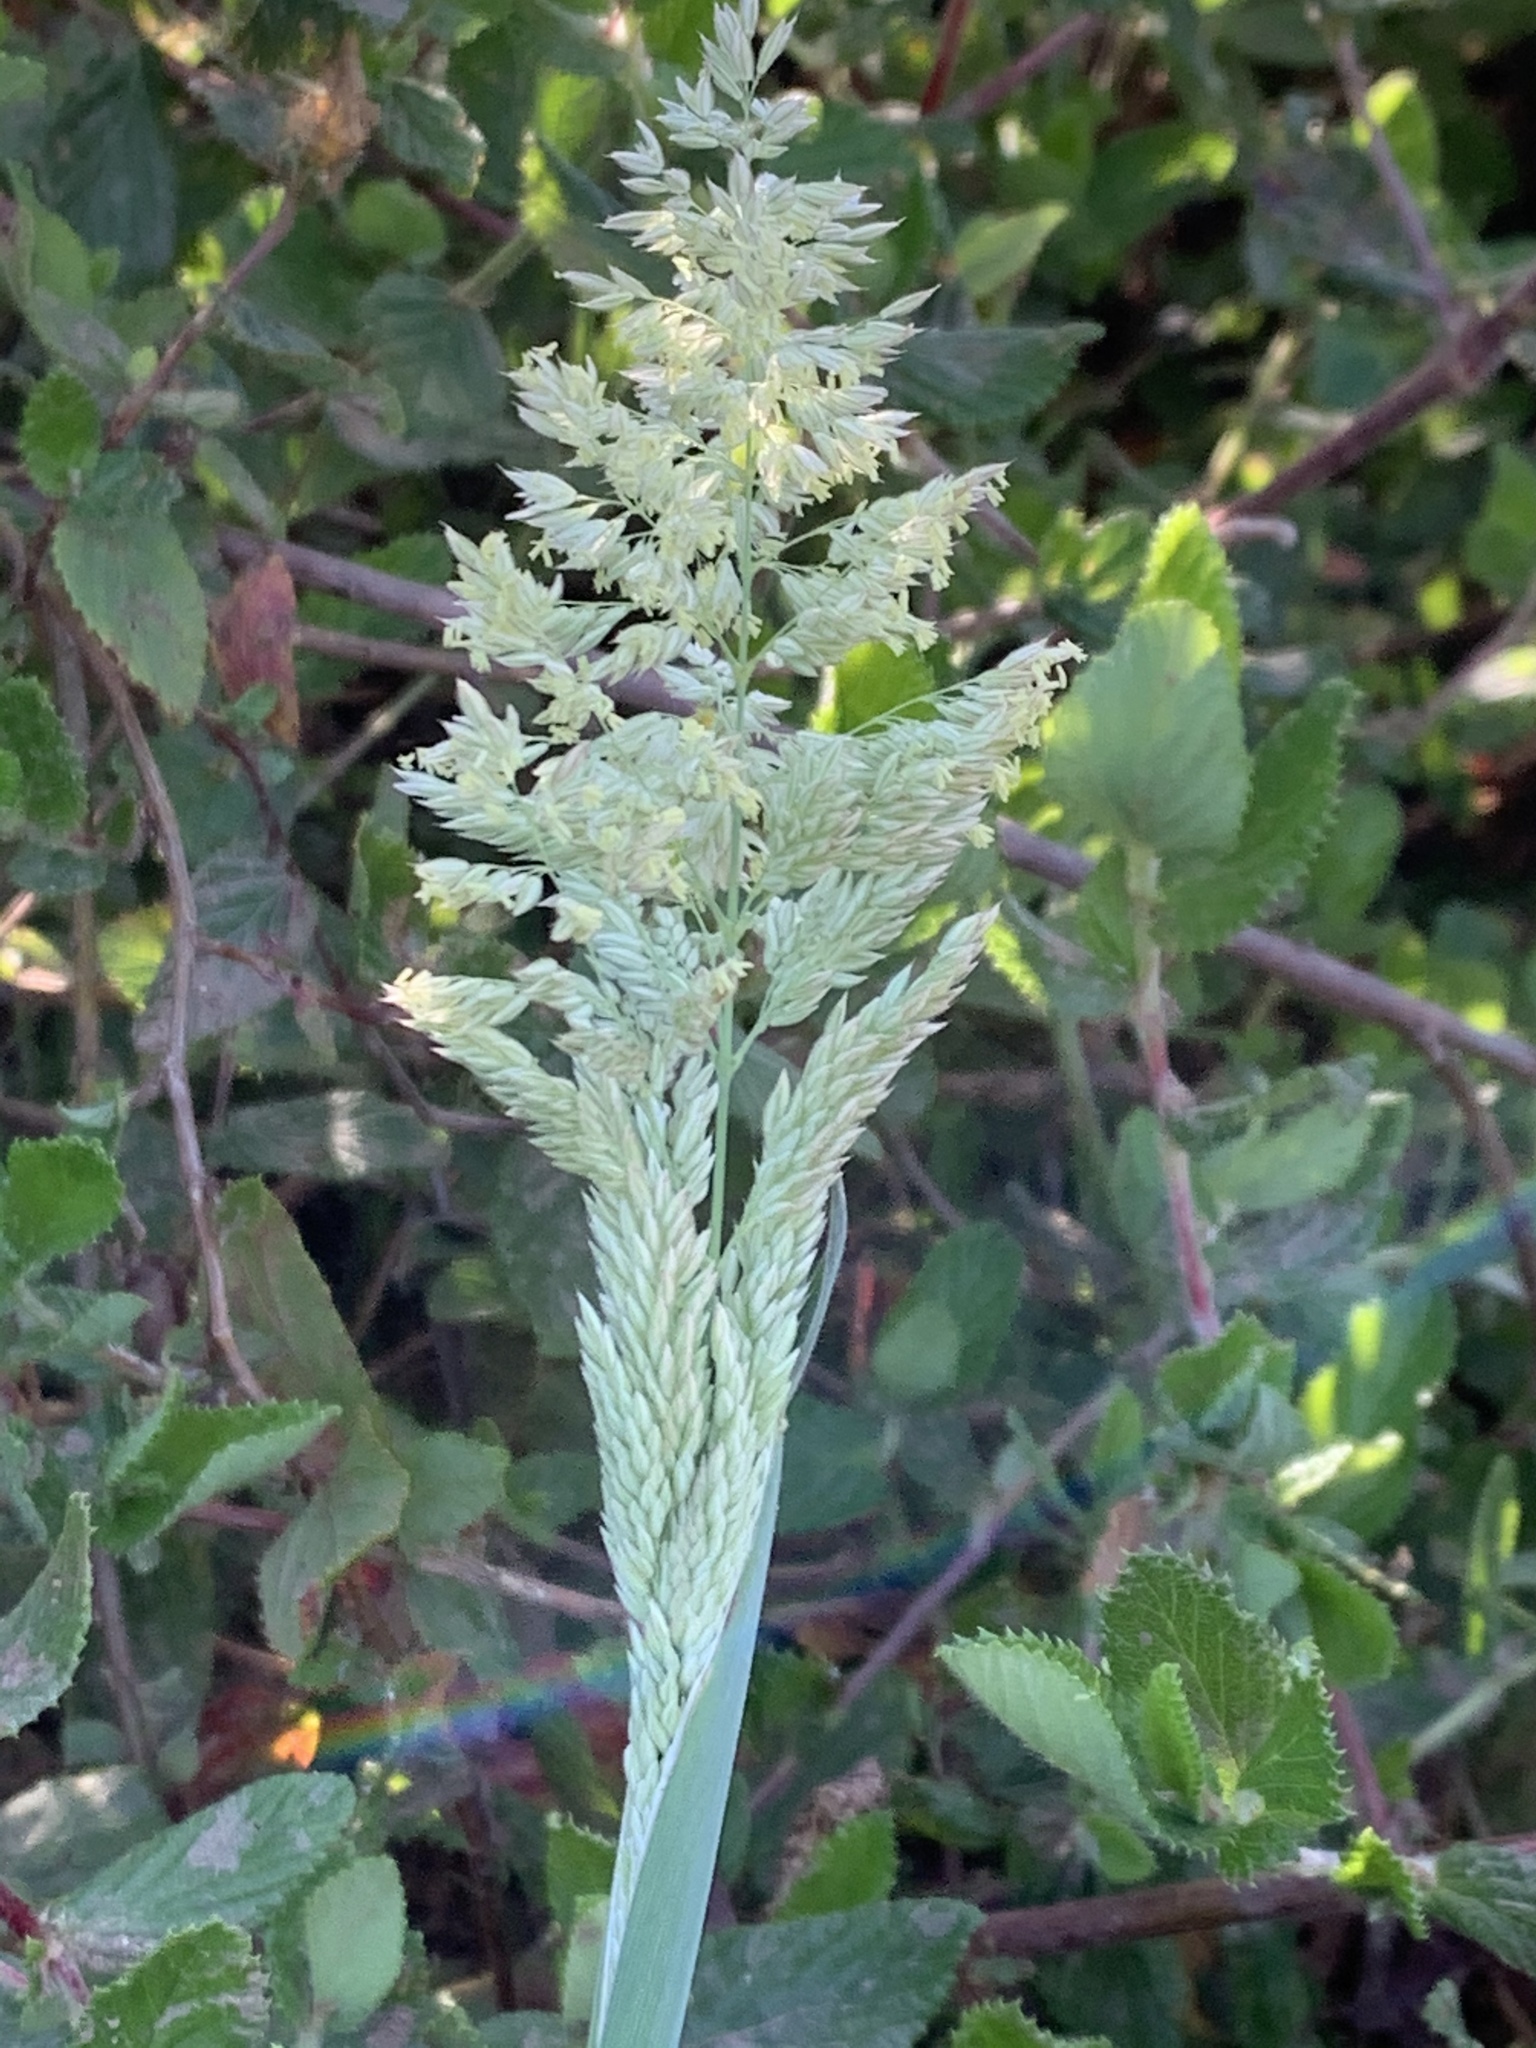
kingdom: Plantae
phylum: Tracheophyta
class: Liliopsida
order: Poales
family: Poaceae
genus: Holcus
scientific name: Holcus lanatus
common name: Yorkshire-fog
